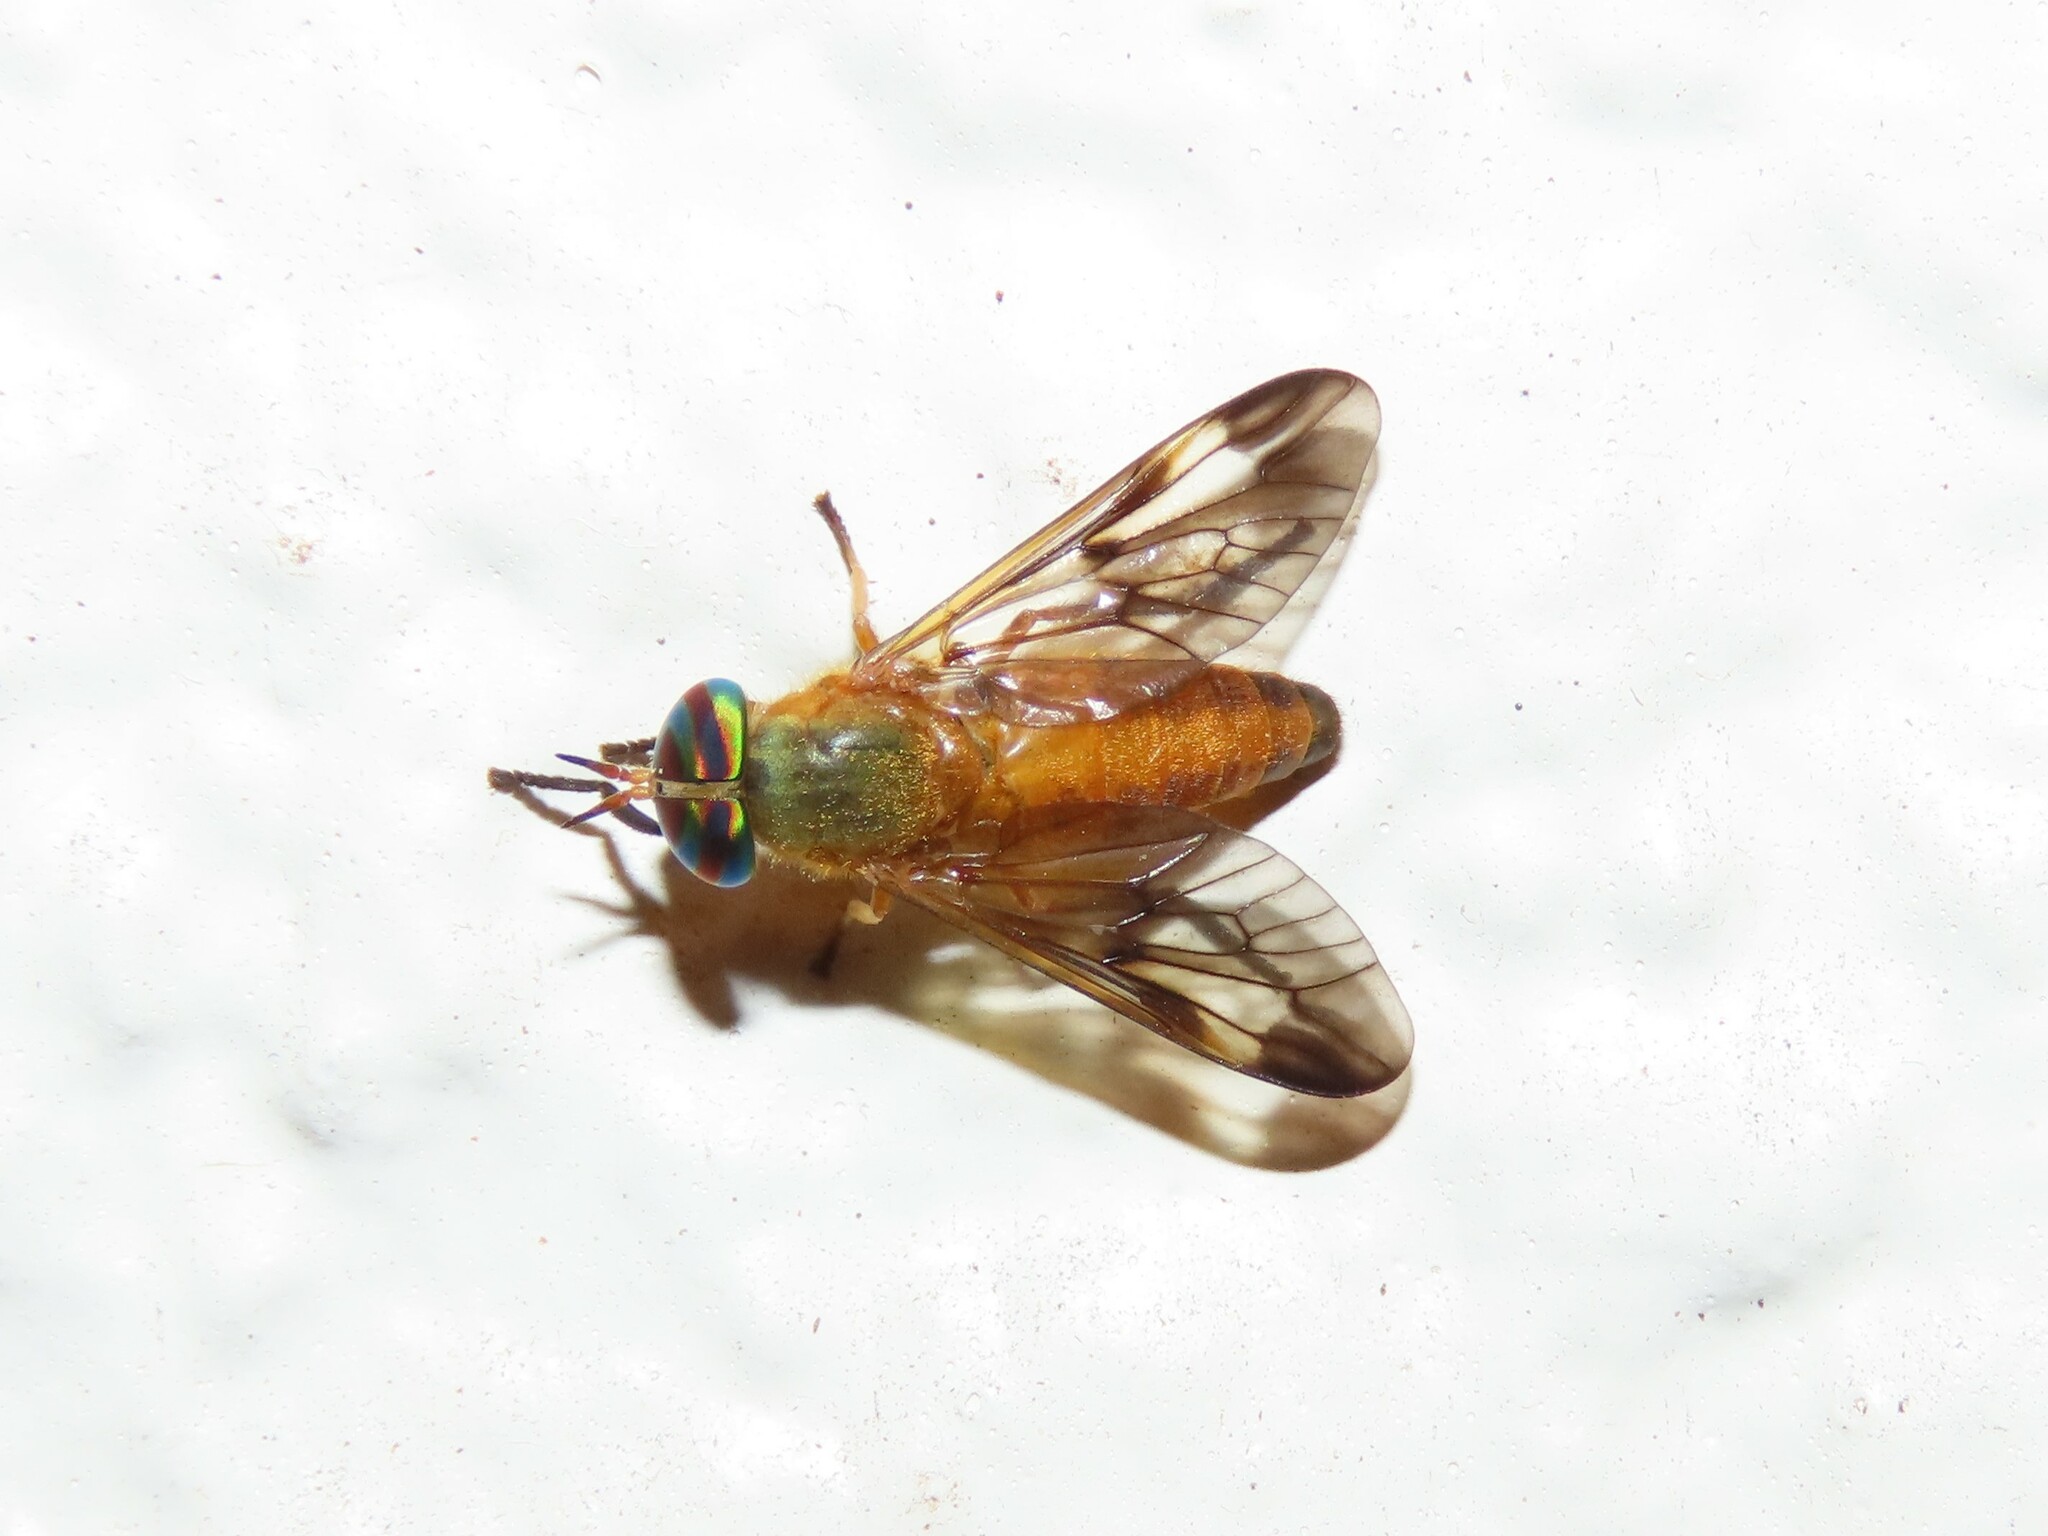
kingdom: Animalia
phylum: Arthropoda
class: Insecta
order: Diptera
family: Tabanidae
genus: Diachlorus
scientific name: Diachlorus ferrugatus
